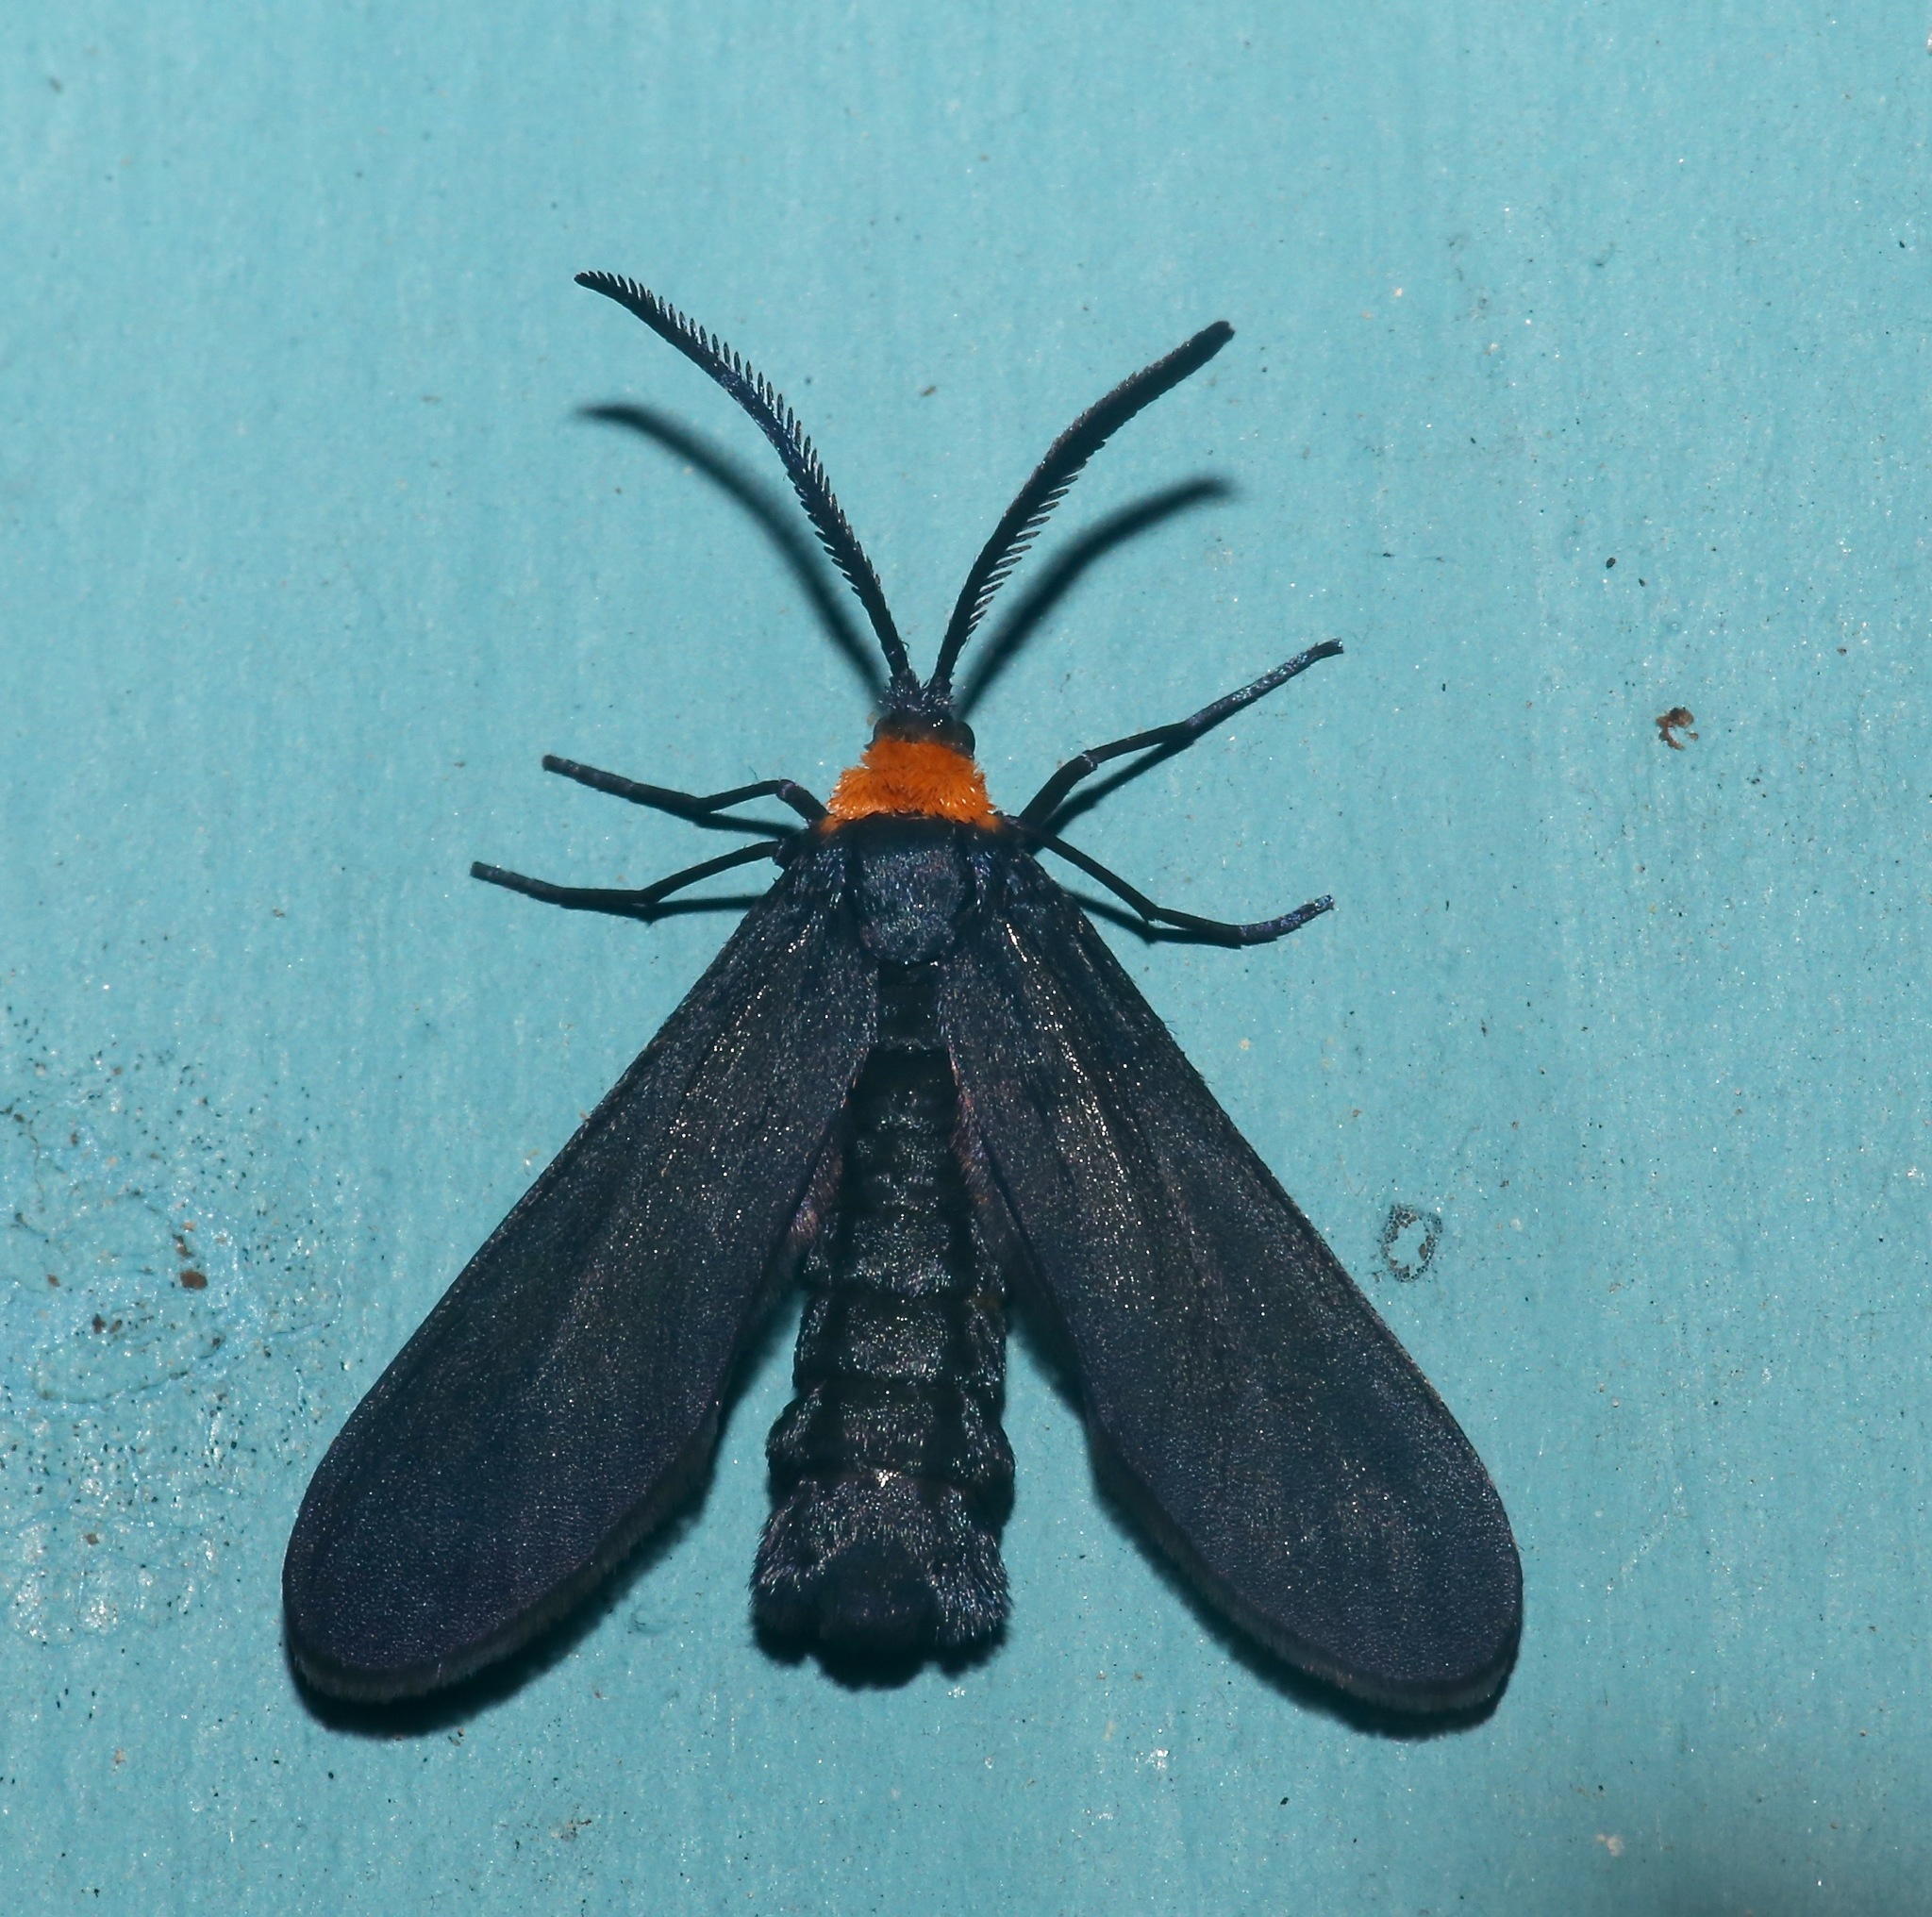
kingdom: Animalia
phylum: Arthropoda
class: Insecta
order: Lepidoptera
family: Zygaenidae
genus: Harrisina
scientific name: Harrisina americana
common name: Grapeleaf skeletonizer moth
